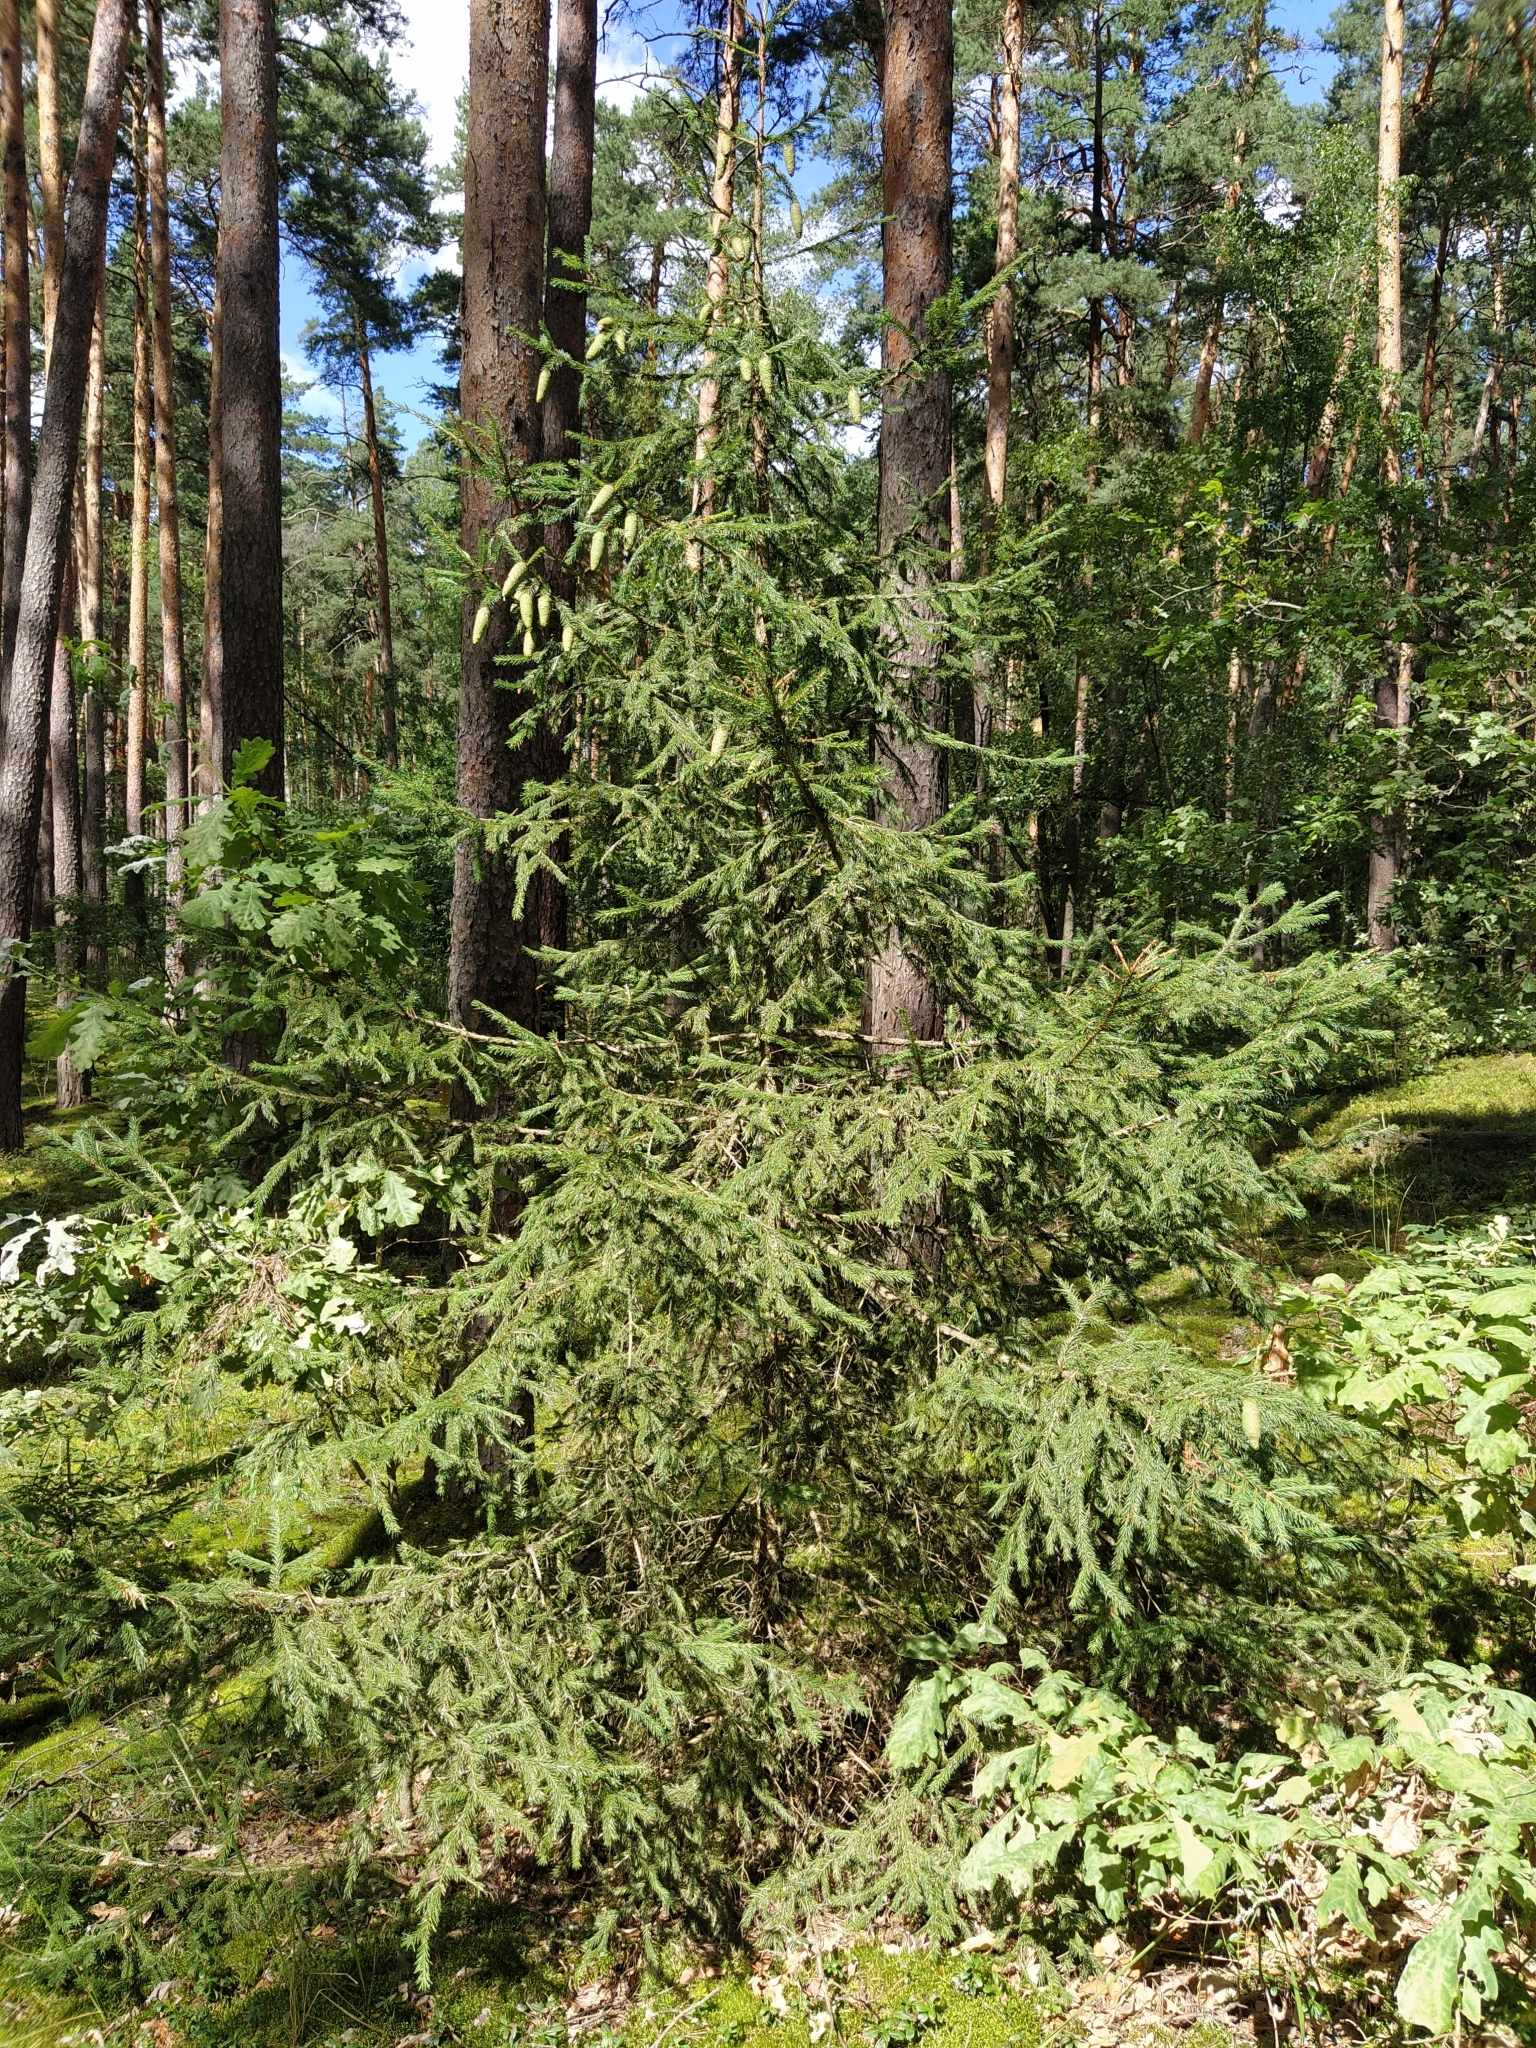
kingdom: Plantae
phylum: Tracheophyta
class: Pinopsida
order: Pinales
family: Pinaceae
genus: Picea
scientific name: Picea abies
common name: Norway spruce
